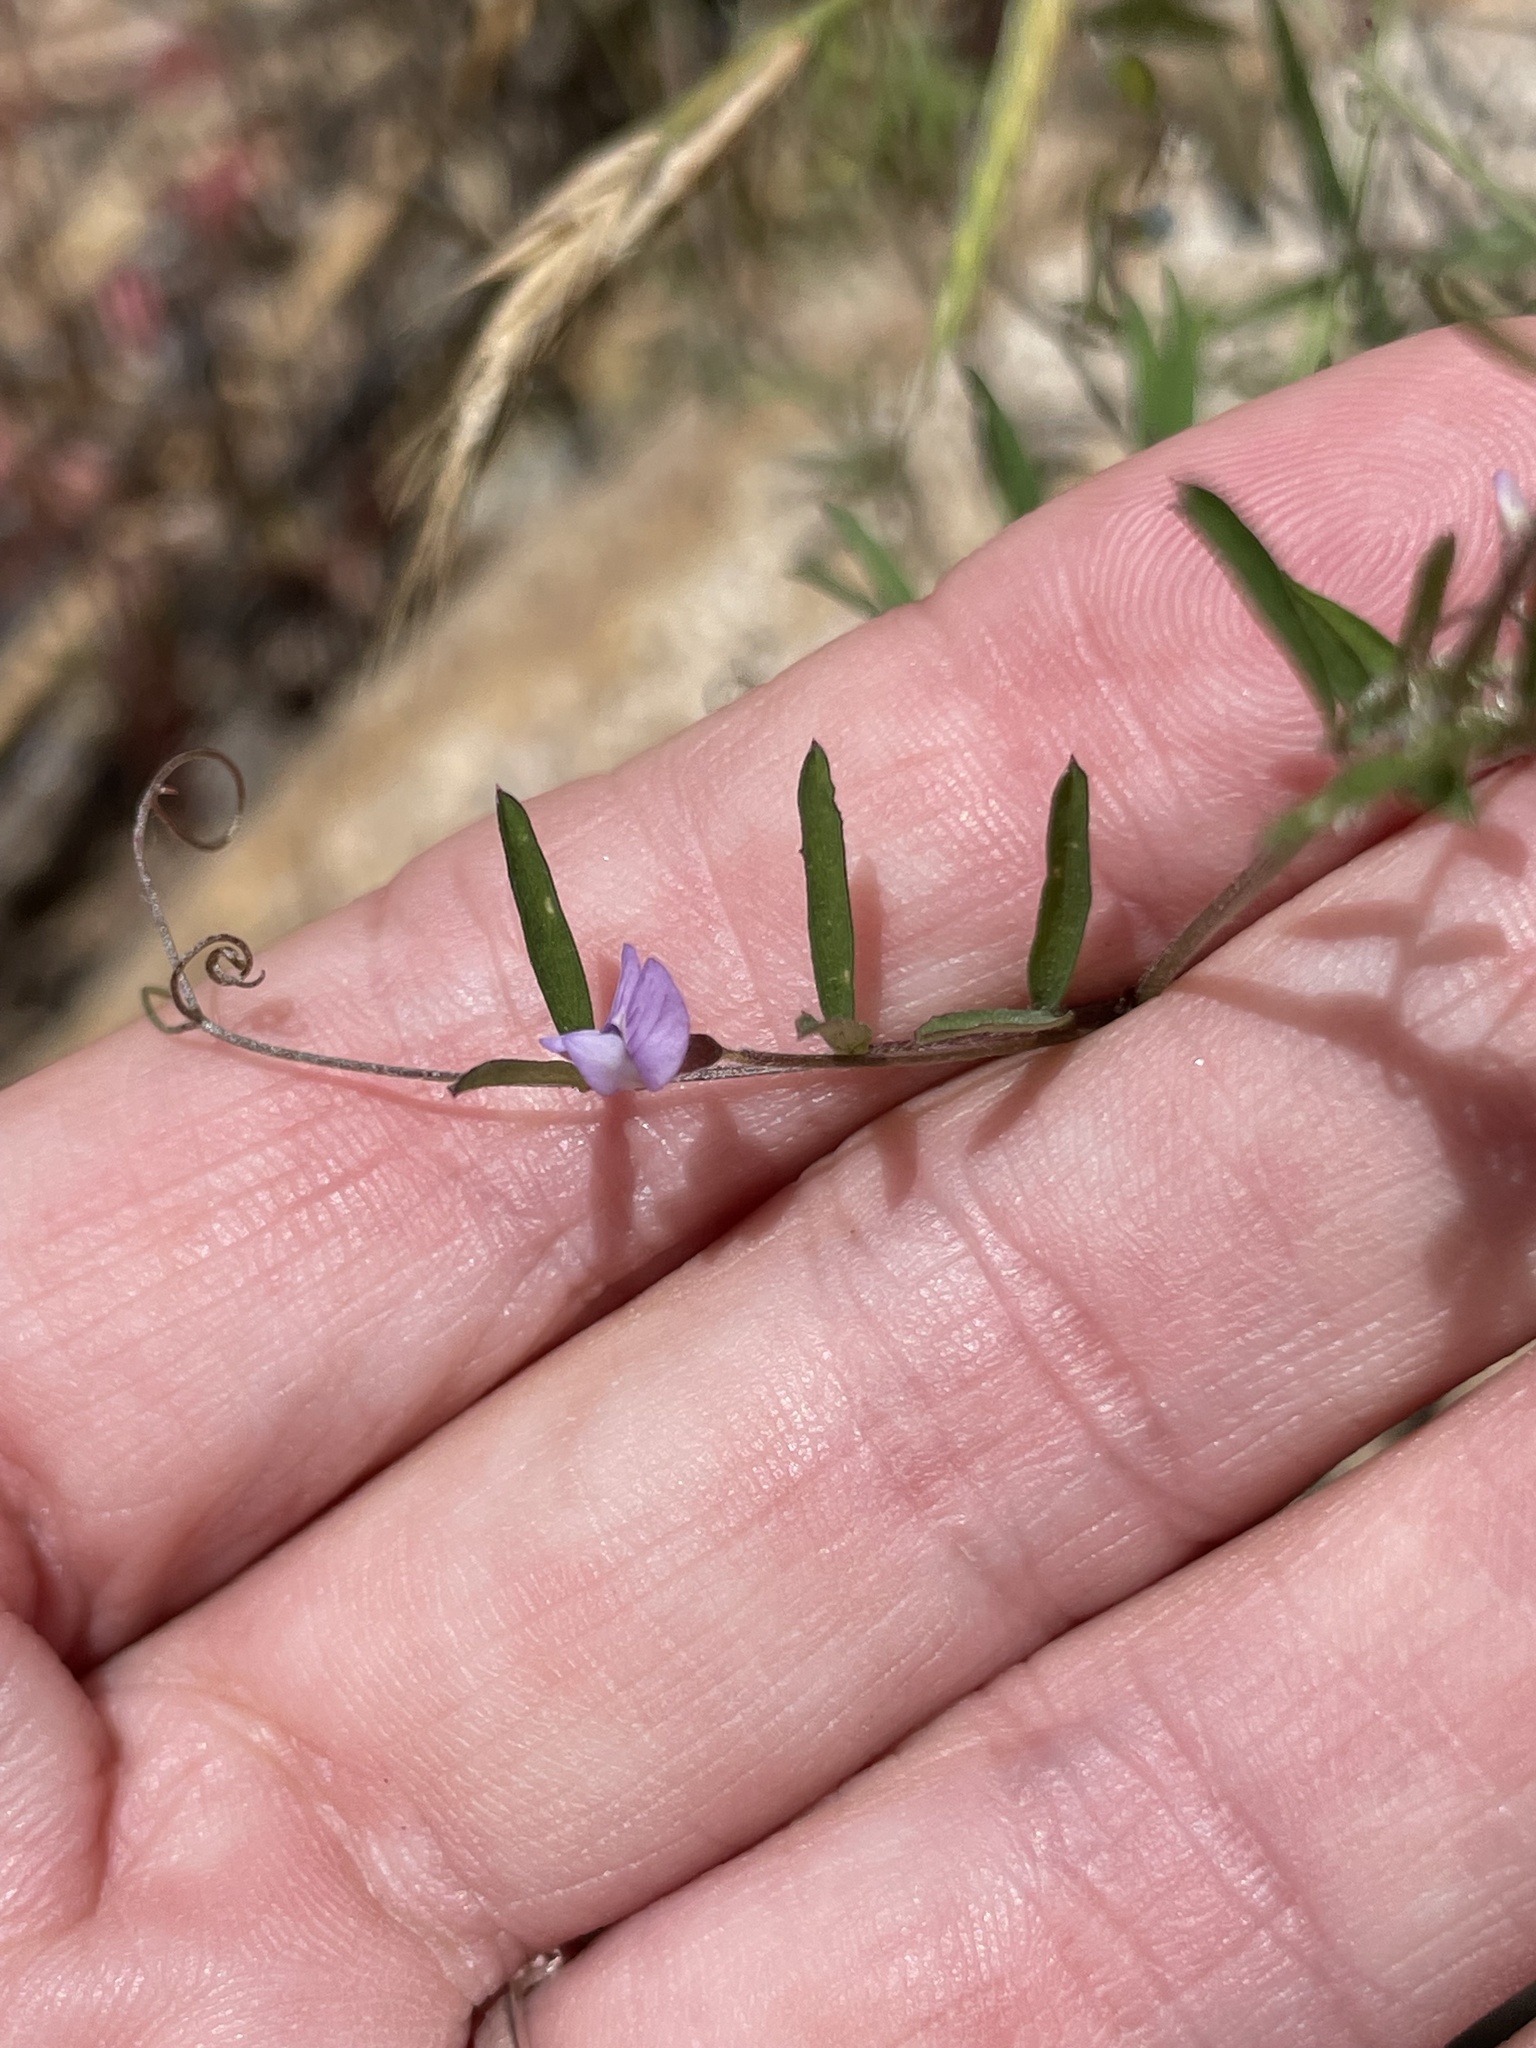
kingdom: Plantae
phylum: Tracheophyta
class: Magnoliopsida
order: Fabales
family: Fabaceae
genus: Vicia
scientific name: Vicia ludoviciana
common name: Louisiana vetch
